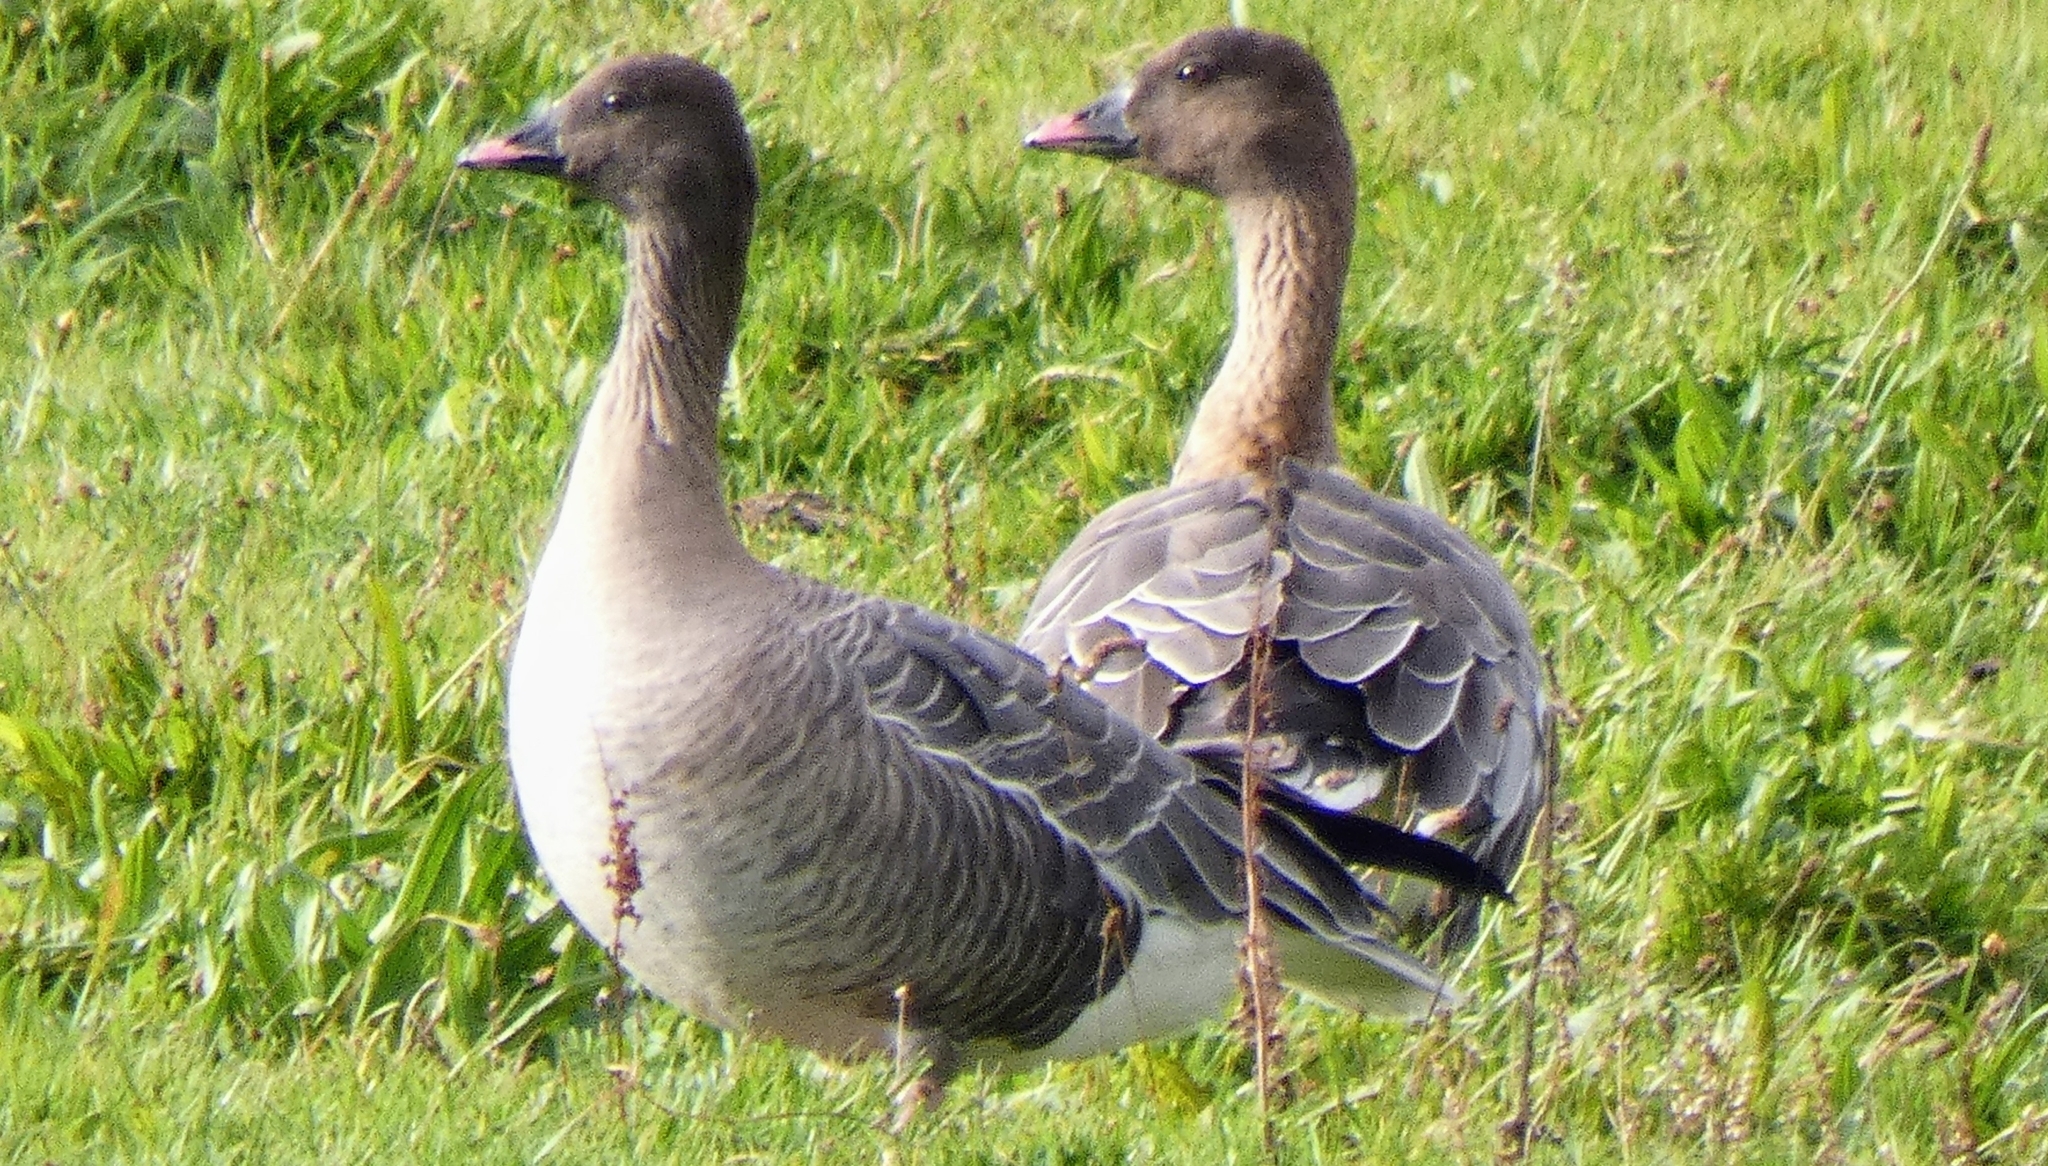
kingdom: Animalia
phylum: Chordata
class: Aves
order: Anseriformes
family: Anatidae
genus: Anser
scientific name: Anser brachyrhynchus
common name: Pink-footed goose
